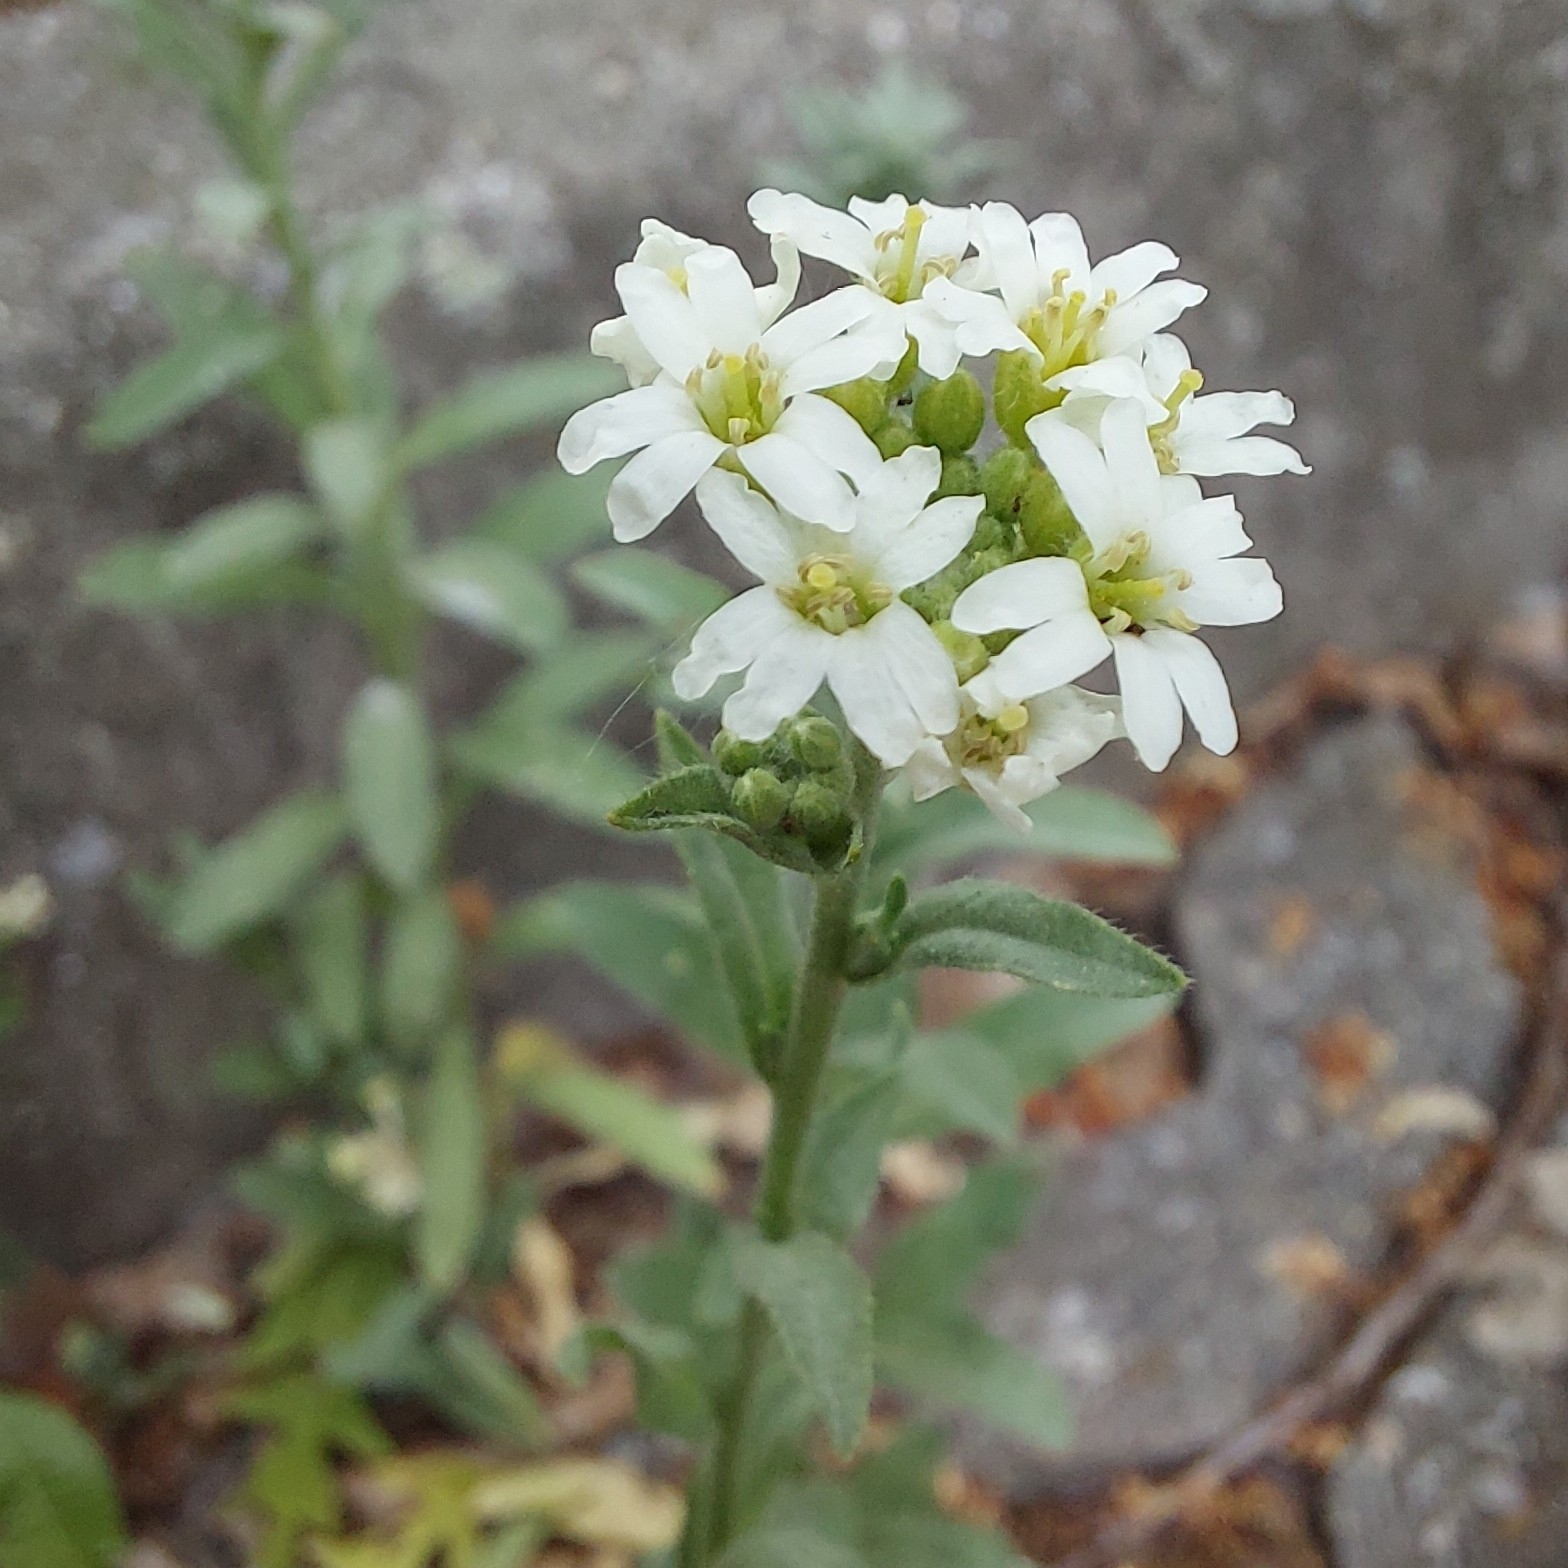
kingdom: Plantae
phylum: Tracheophyta
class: Magnoliopsida
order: Brassicales
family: Brassicaceae
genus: Berteroa
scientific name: Berteroa incana
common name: Hoary alison
